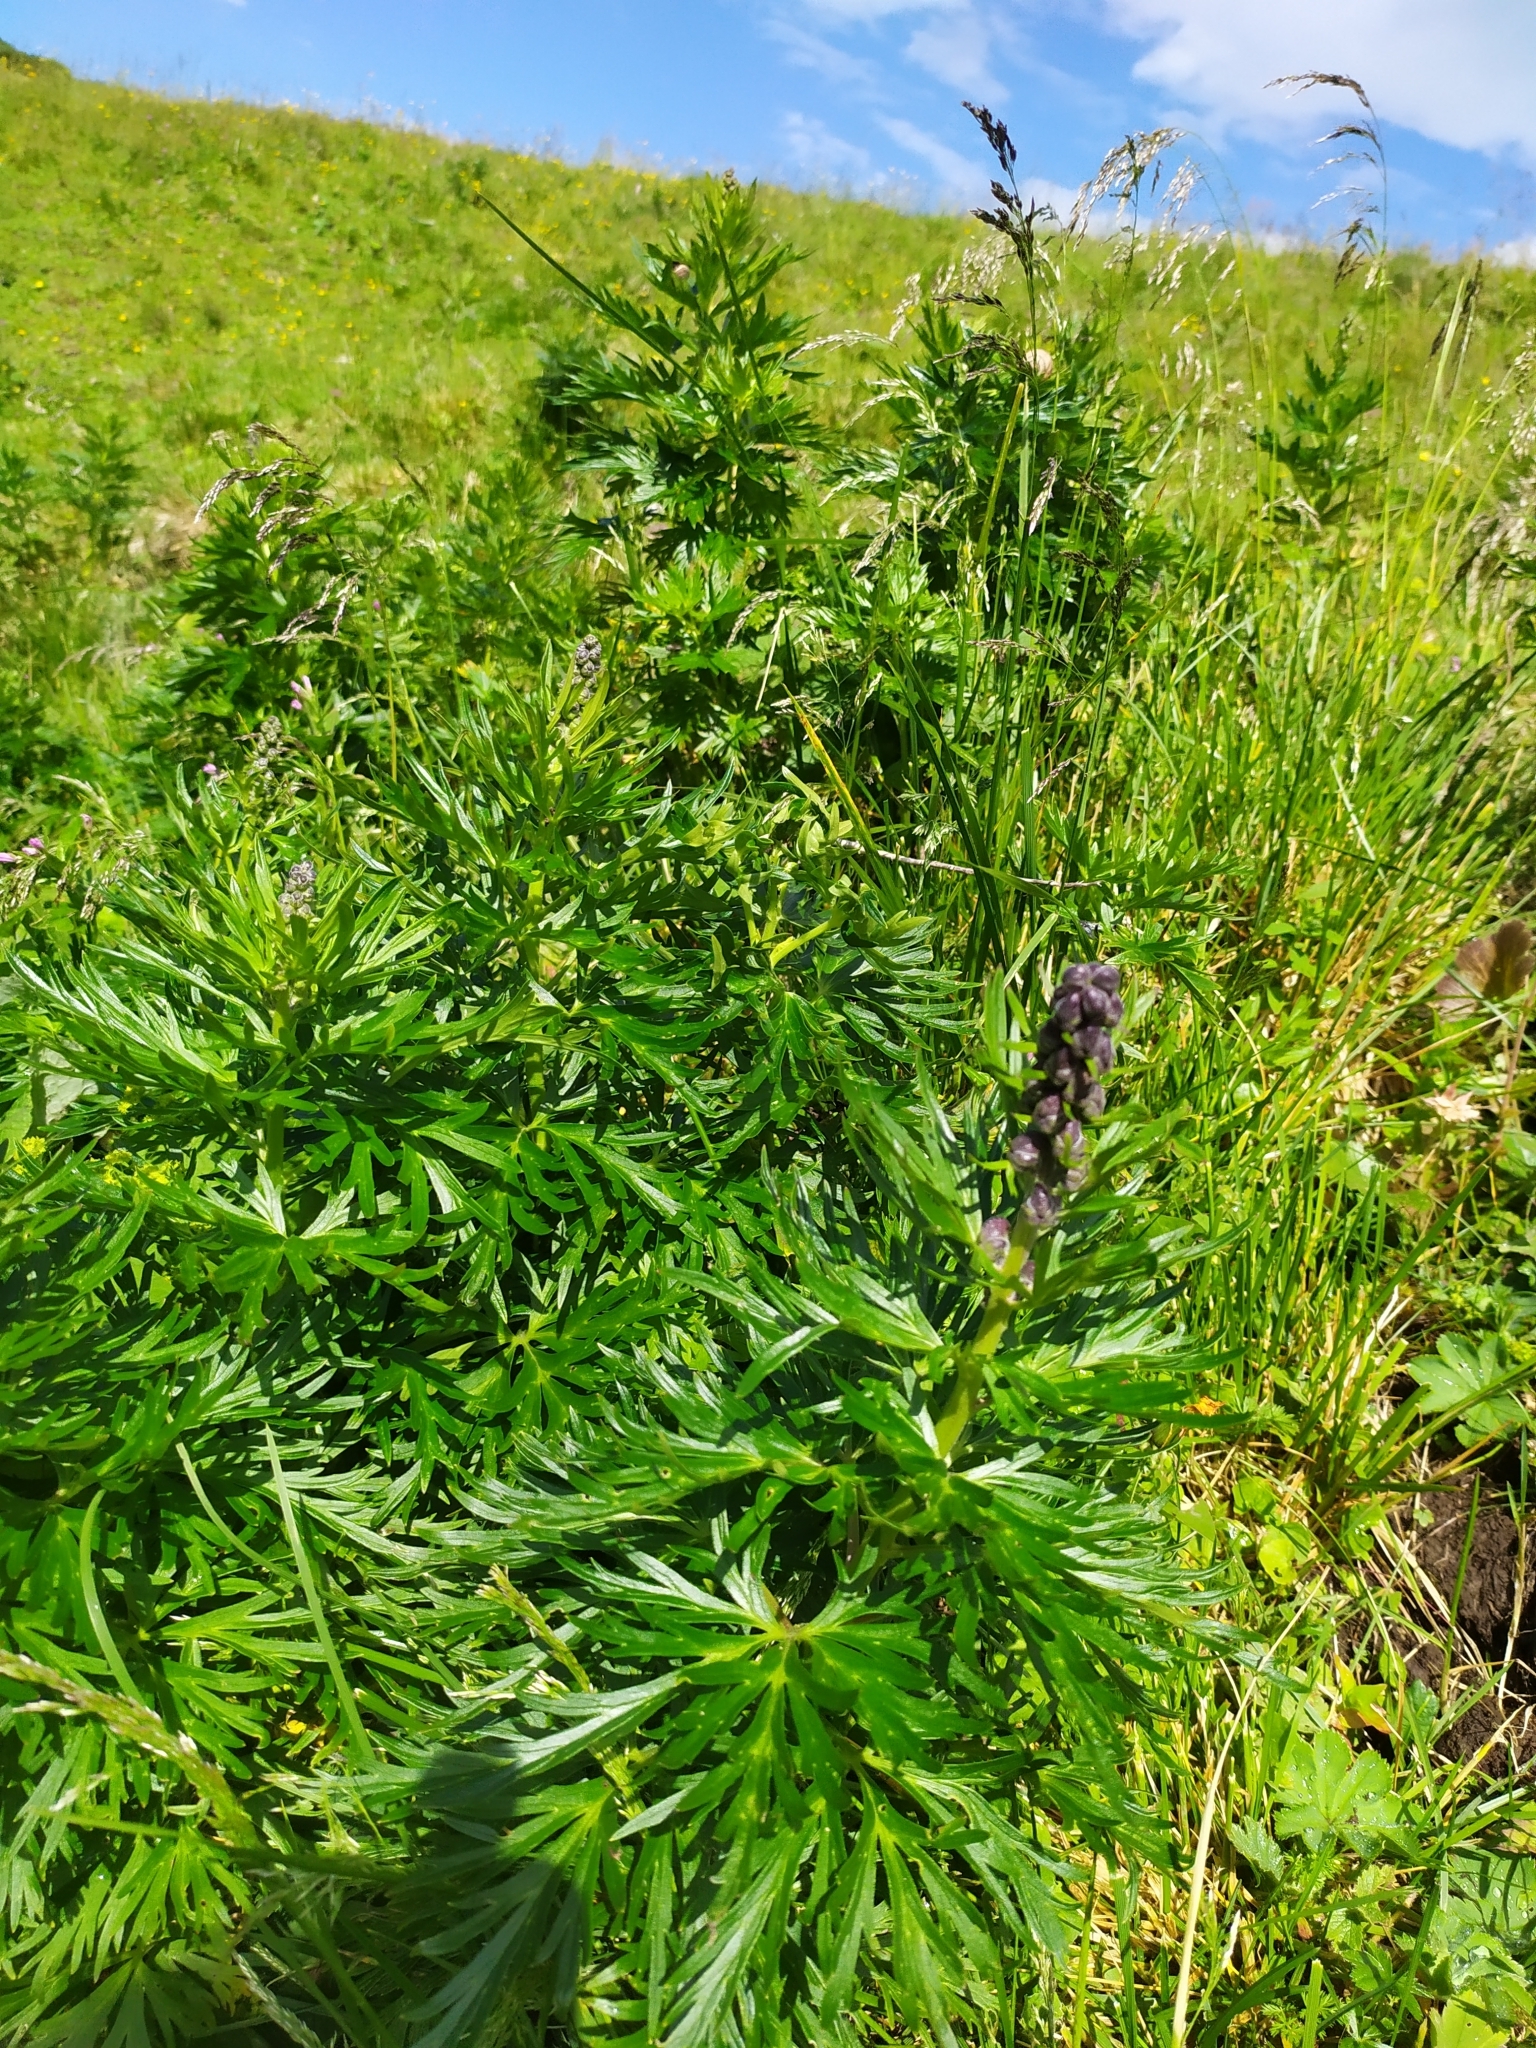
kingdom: Plantae
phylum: Tracheophyta
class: Magnoliopsida
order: Ranunculales
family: Ranunculaceae
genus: Aconitum
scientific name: Aconitum napellus
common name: Garden monkshood
